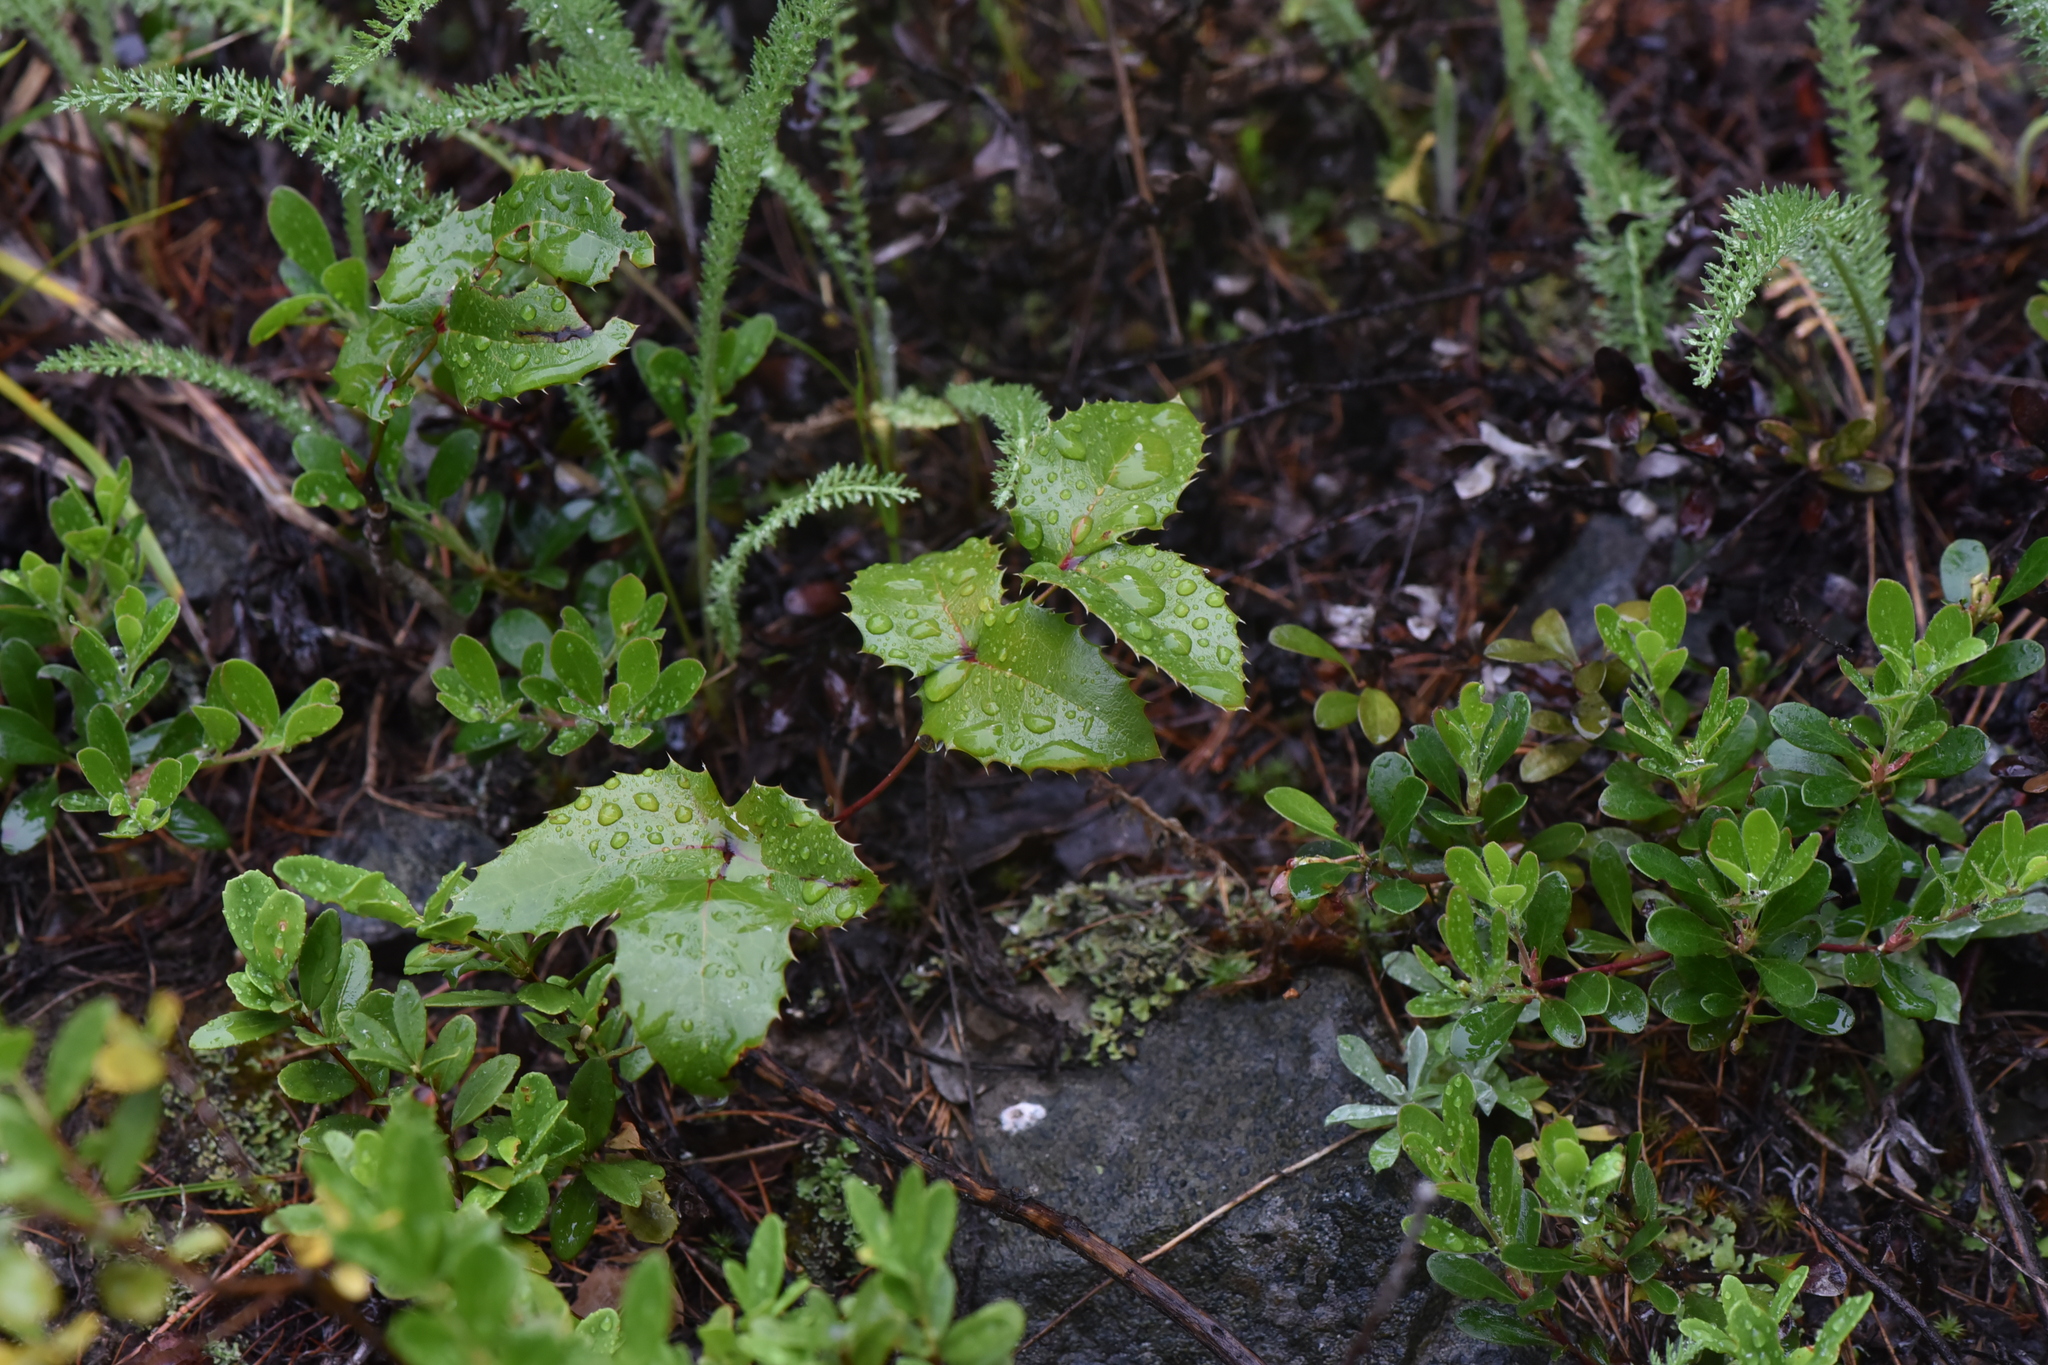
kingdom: Plantae
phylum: Tracheophyta
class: Magnoliopsida
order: Ranunculales
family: Berberidaceae
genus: Mahonia
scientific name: Mahonia aquifolium
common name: Oregon-grape
